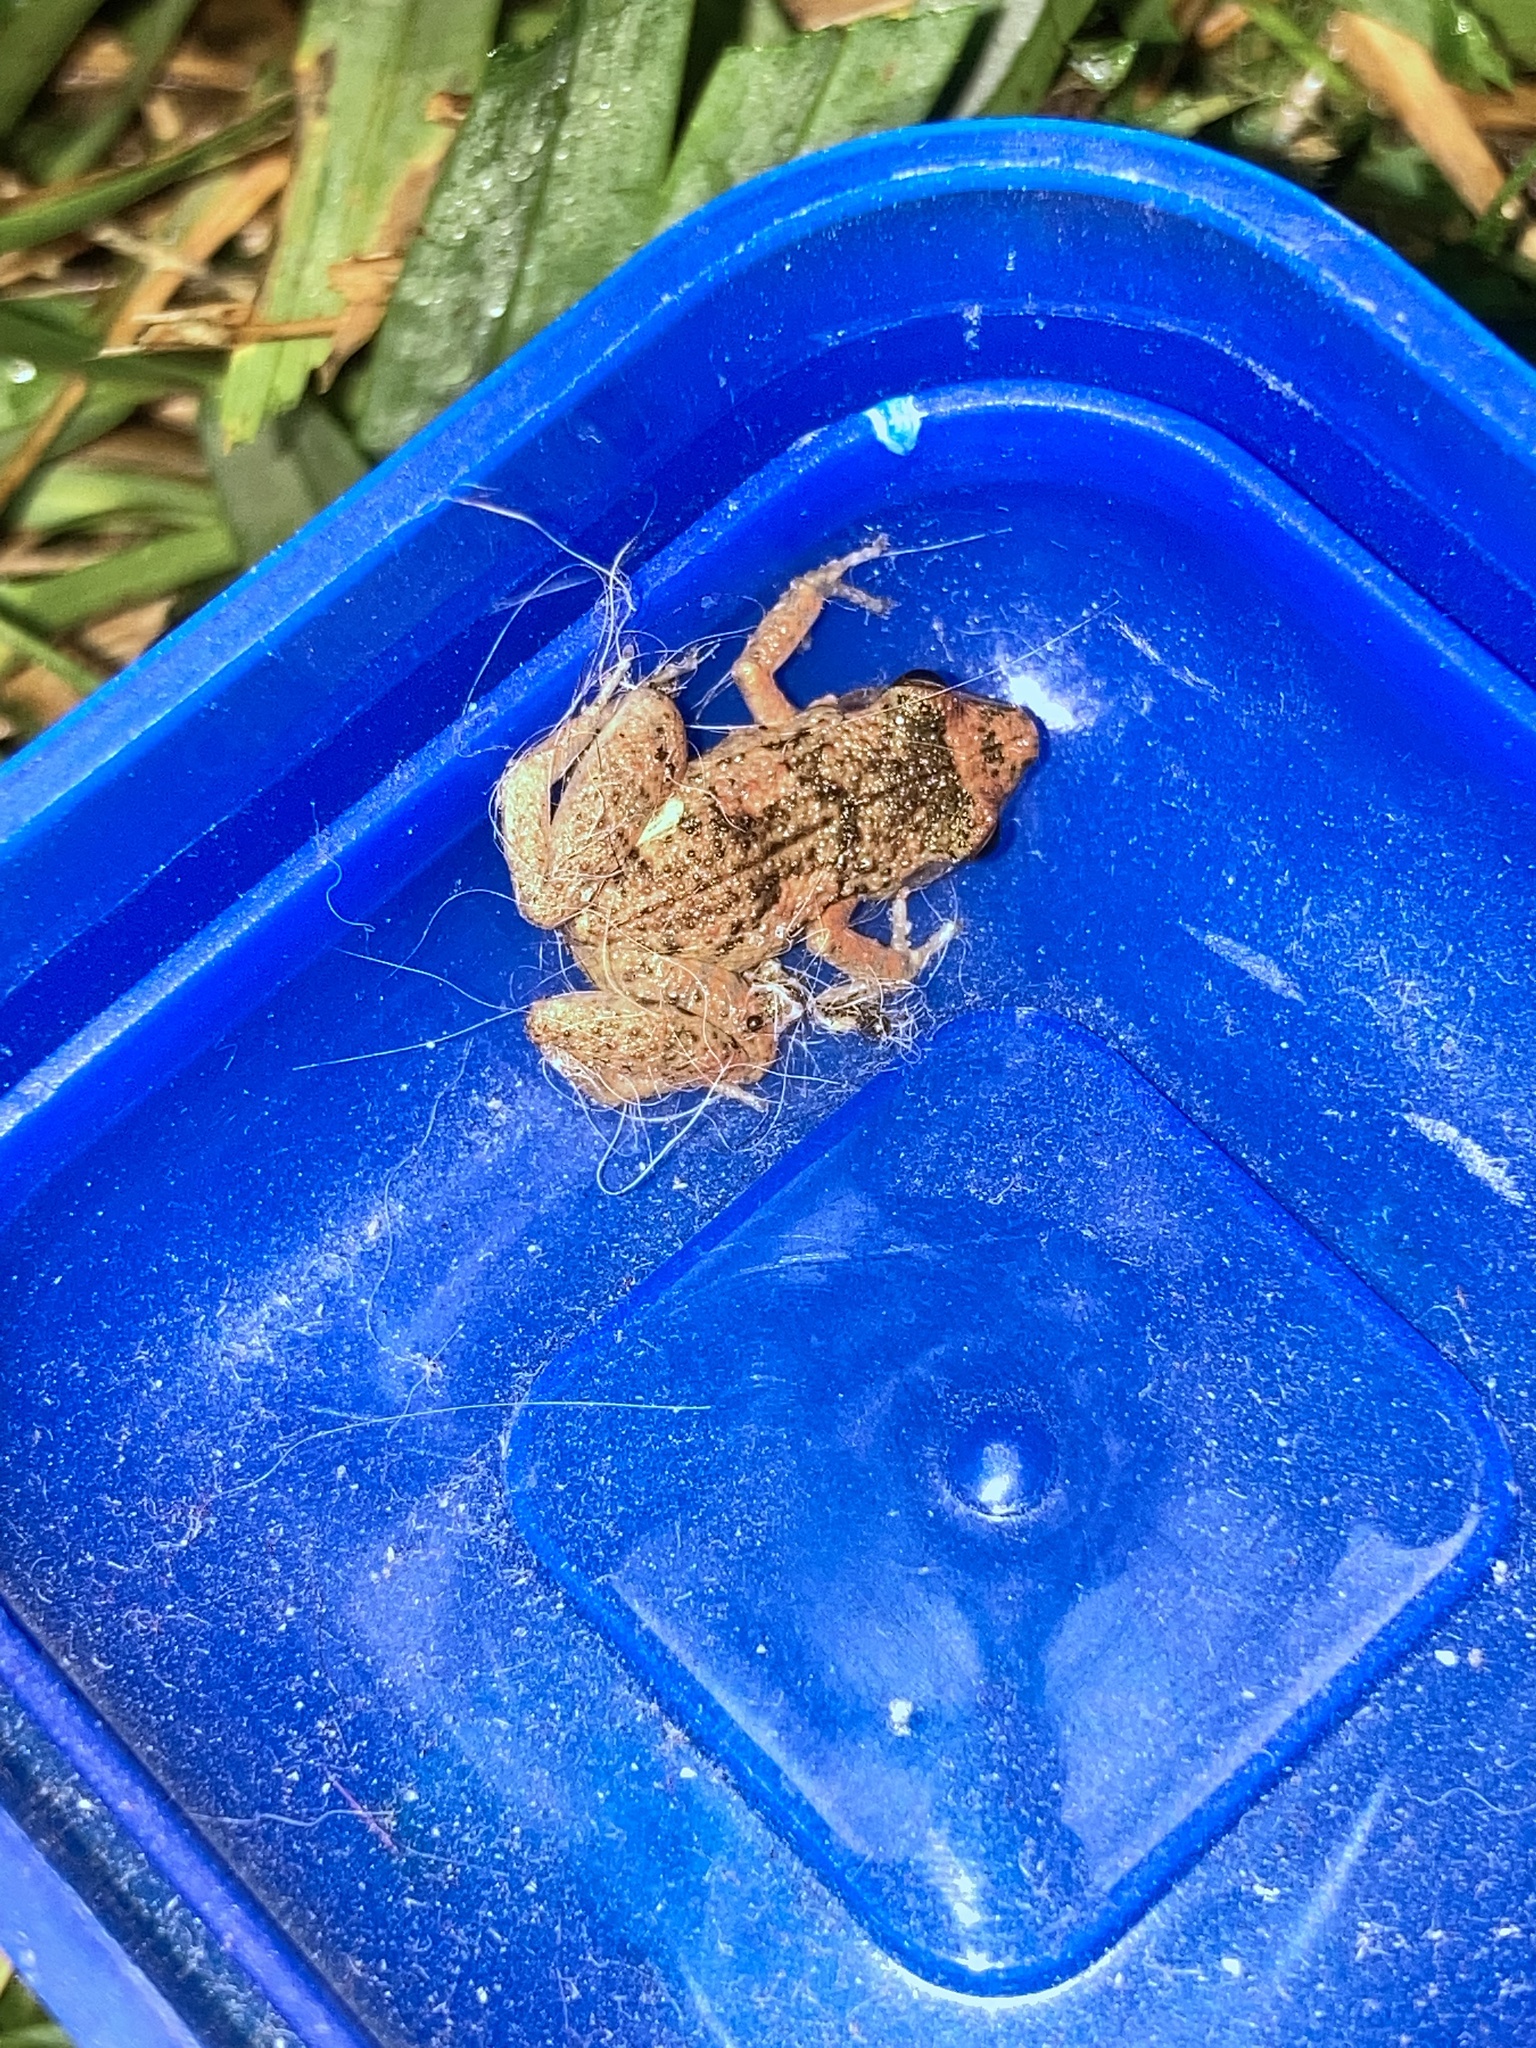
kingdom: Animalia
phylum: Chordata
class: Amphibia
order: Anura
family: Eleutherodactylidae
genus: Eleutherodactylus
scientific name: Eleutherodactylus planirostris
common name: Greenhouse frog
